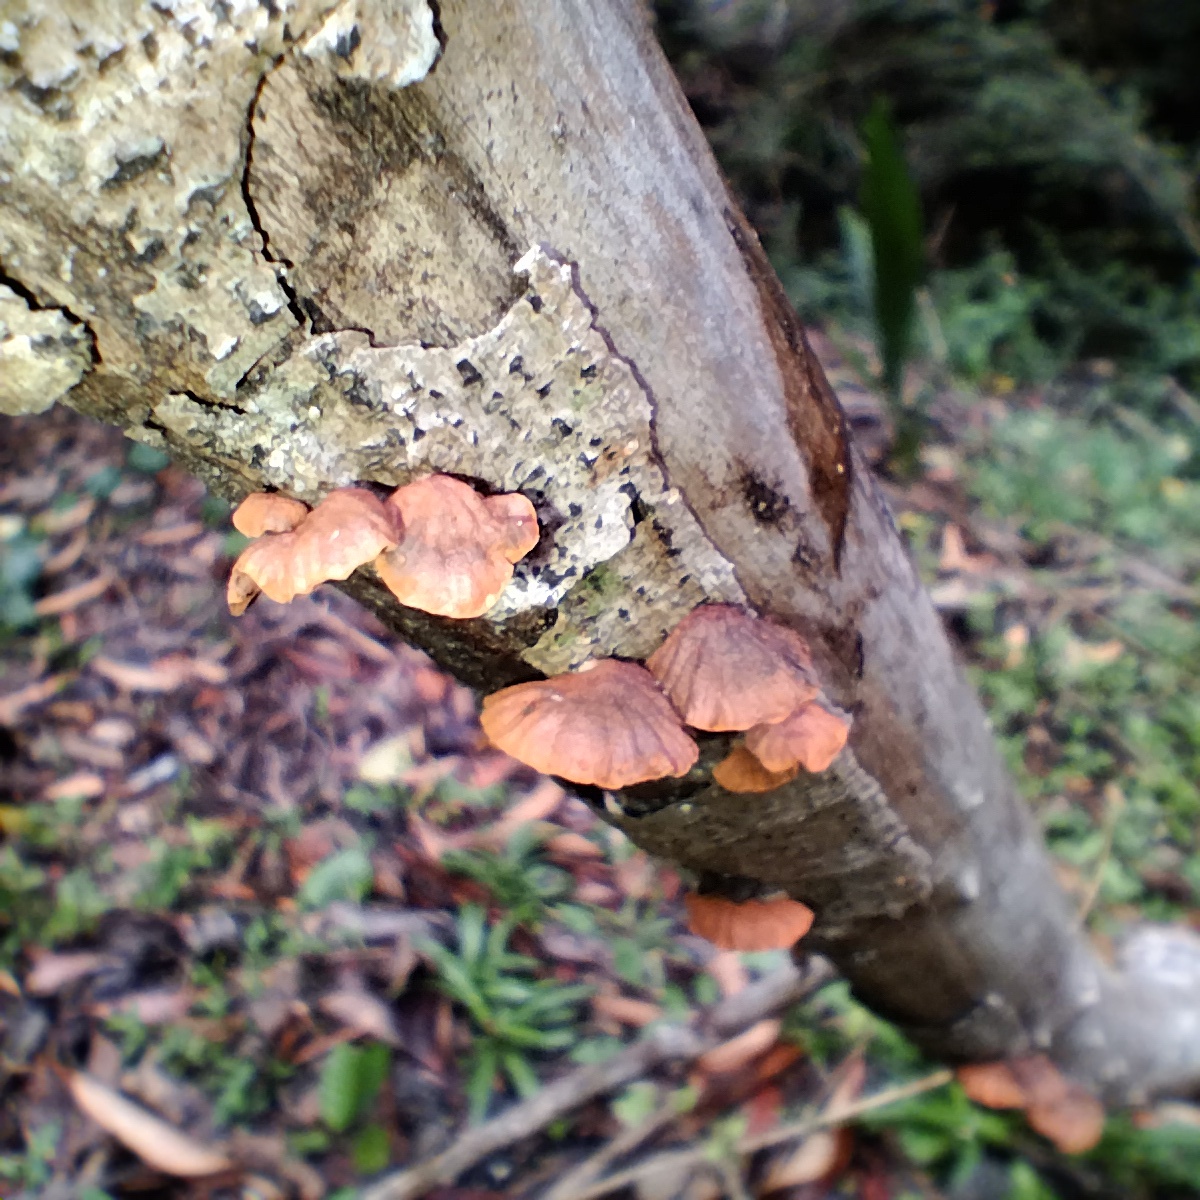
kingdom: Fungi
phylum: Basidiomycota
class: Agaricomycetes
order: Agaricales
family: Omphalotaceae
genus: Anthracophyllum
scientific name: Anthracophyllum archeri
